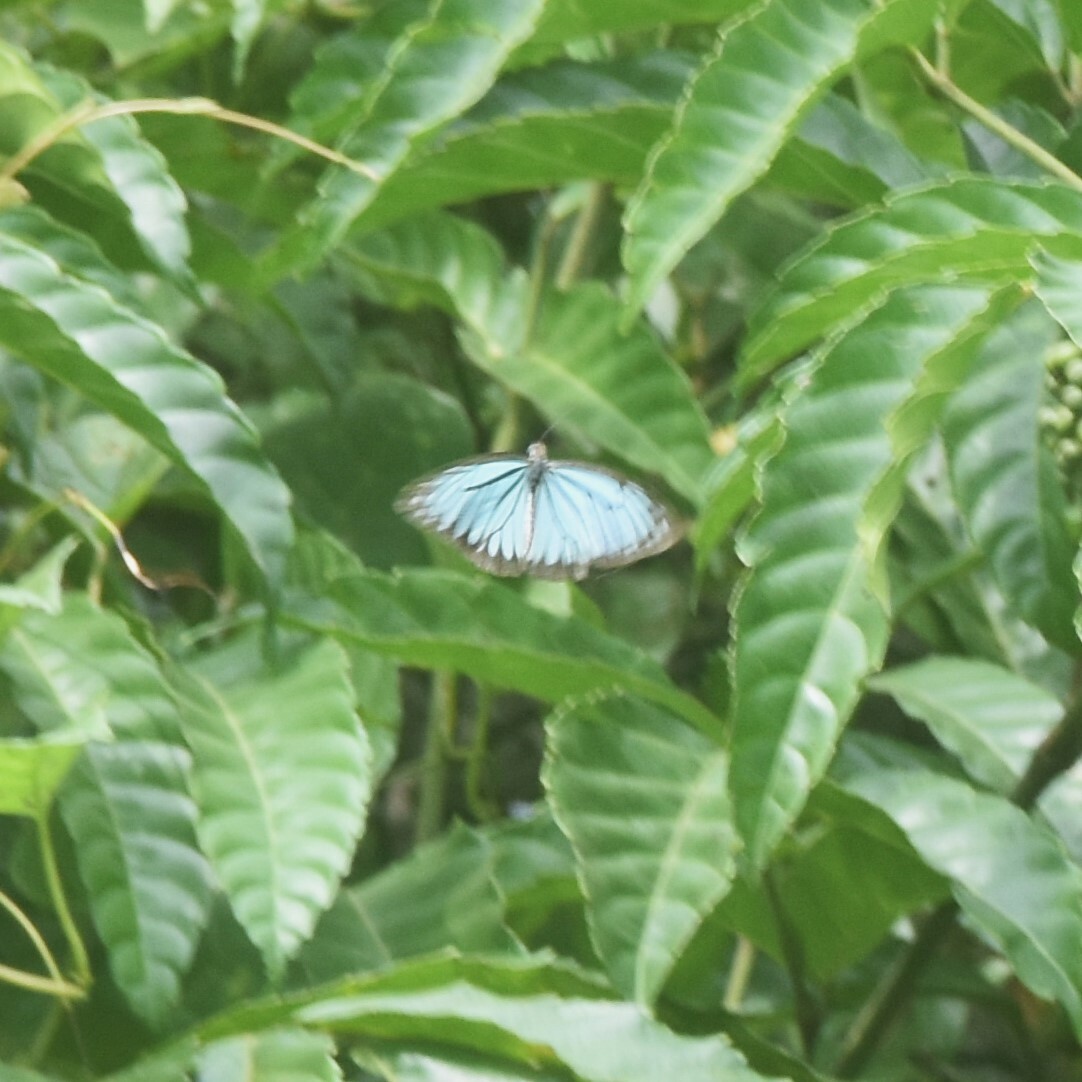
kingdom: Animalia
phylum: Arthropoda
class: Insecta
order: Lepidoptera
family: Pieridae
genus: Pareronia
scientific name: Pareronia hippia
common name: Indian wanderer
